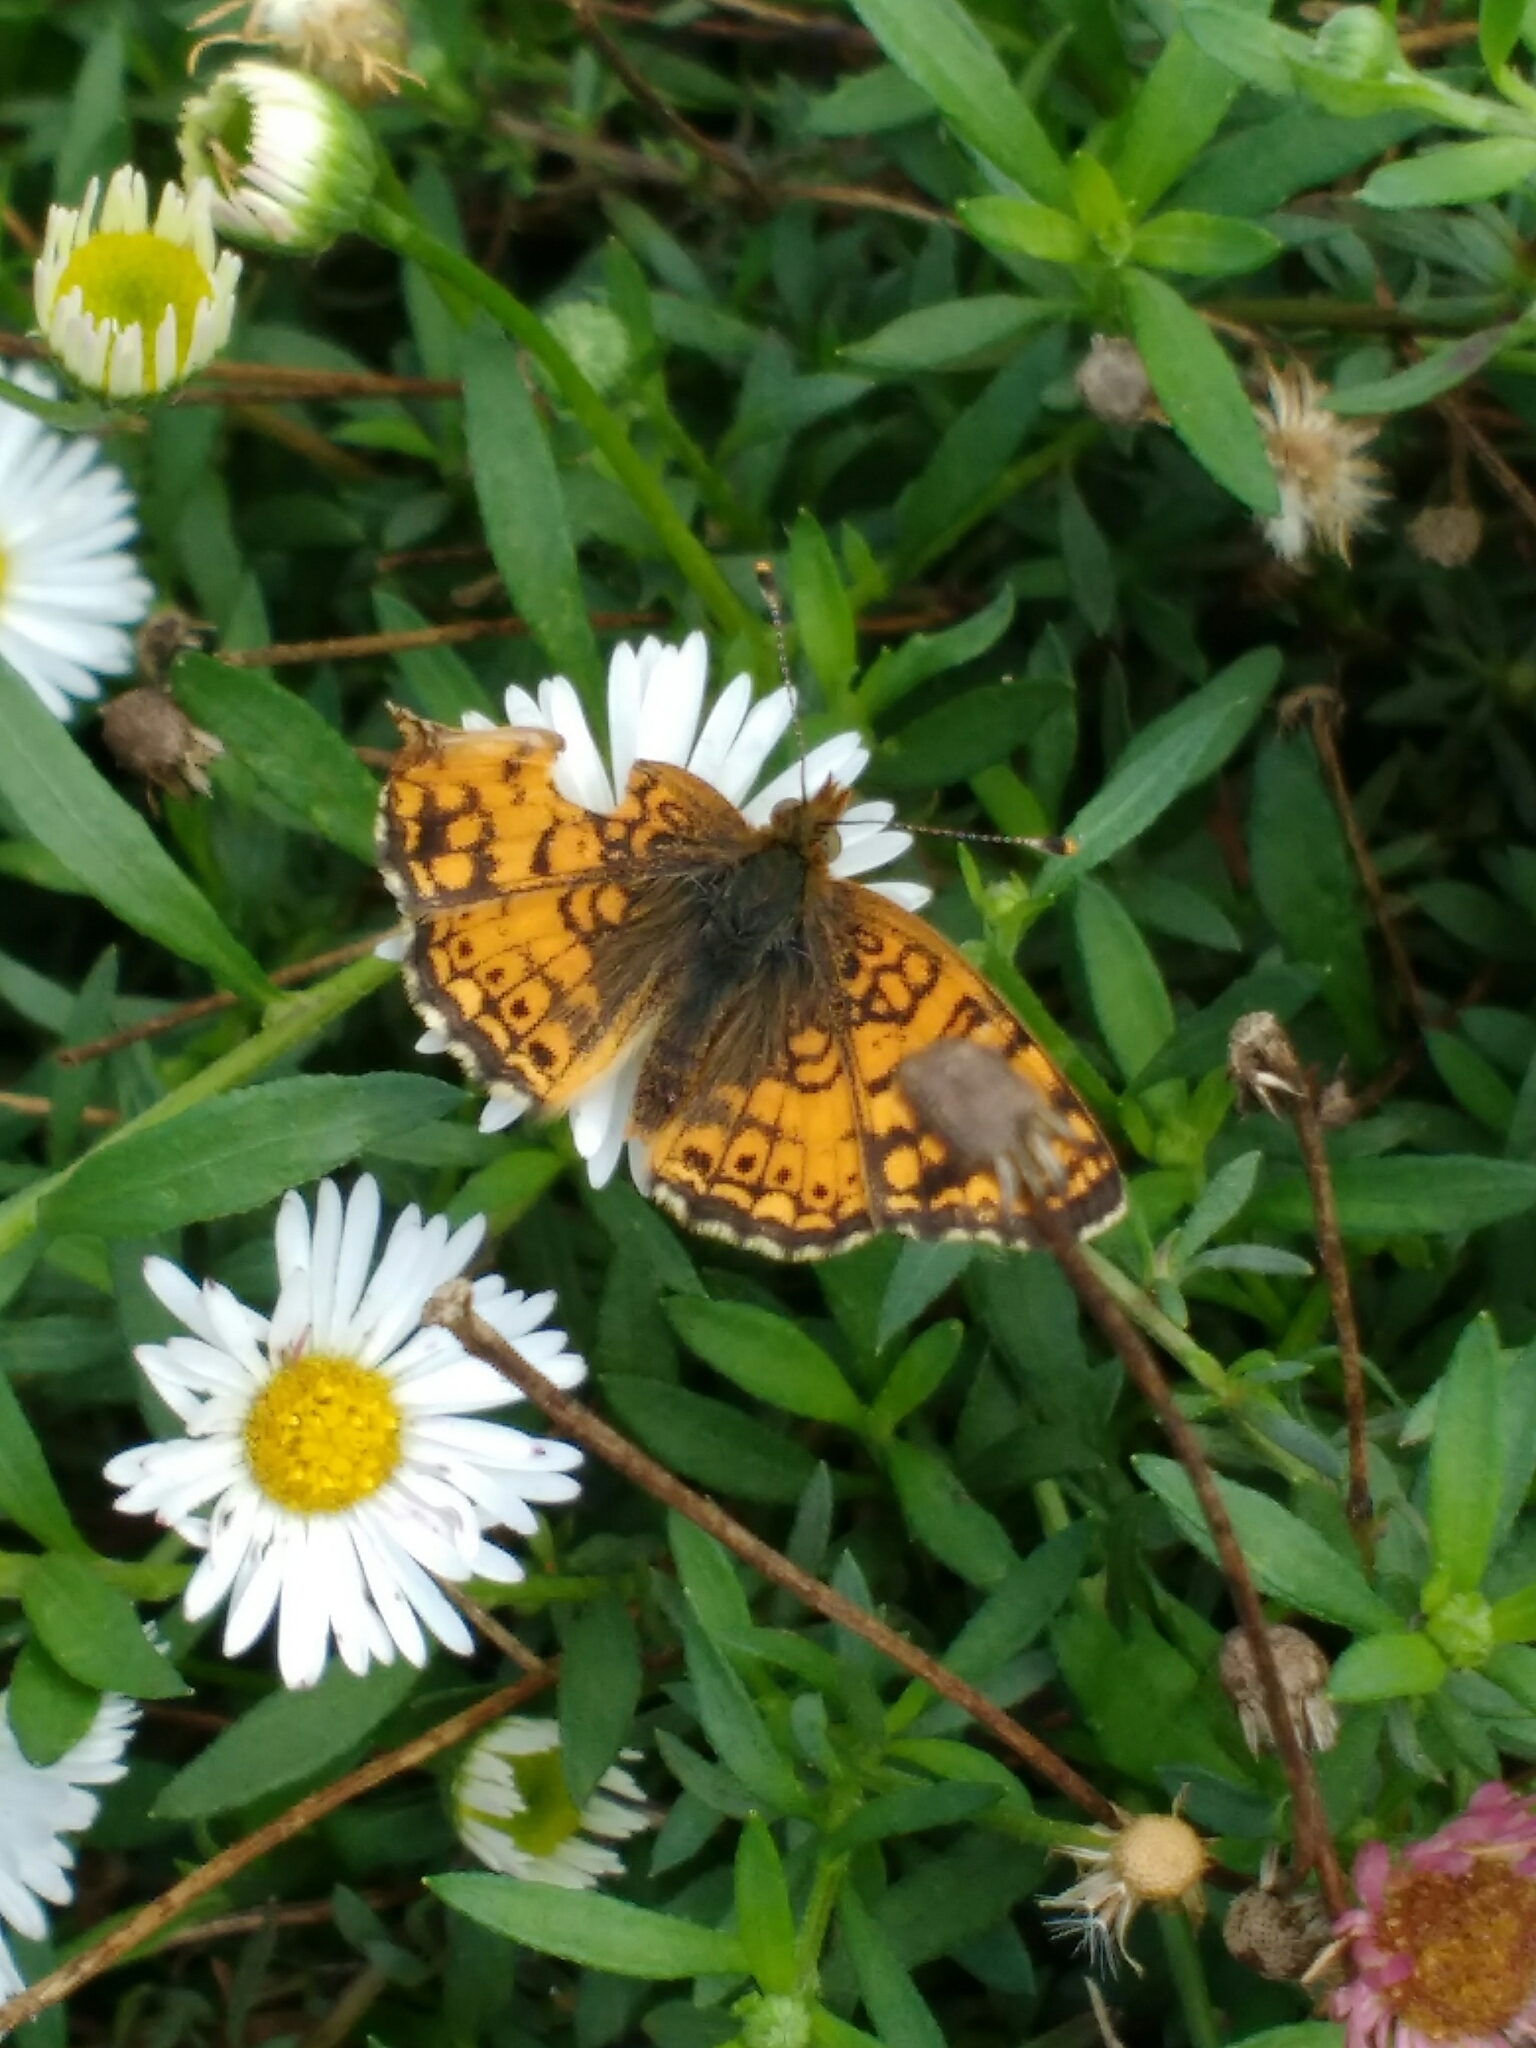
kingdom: Animalia
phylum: Arthropoda
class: Insecta
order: Lepidoptera
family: Nymphalidae
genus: Eresia
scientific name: Eresia aveyrona
